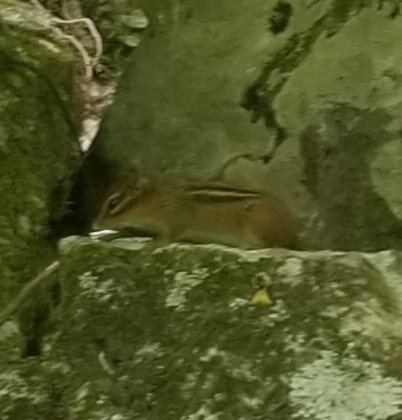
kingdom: Animalia
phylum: Chordata
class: Mammalia
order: Rodentia
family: Sciuridae
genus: Tamias
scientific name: Tamias striatus
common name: Eastern chipmunk
